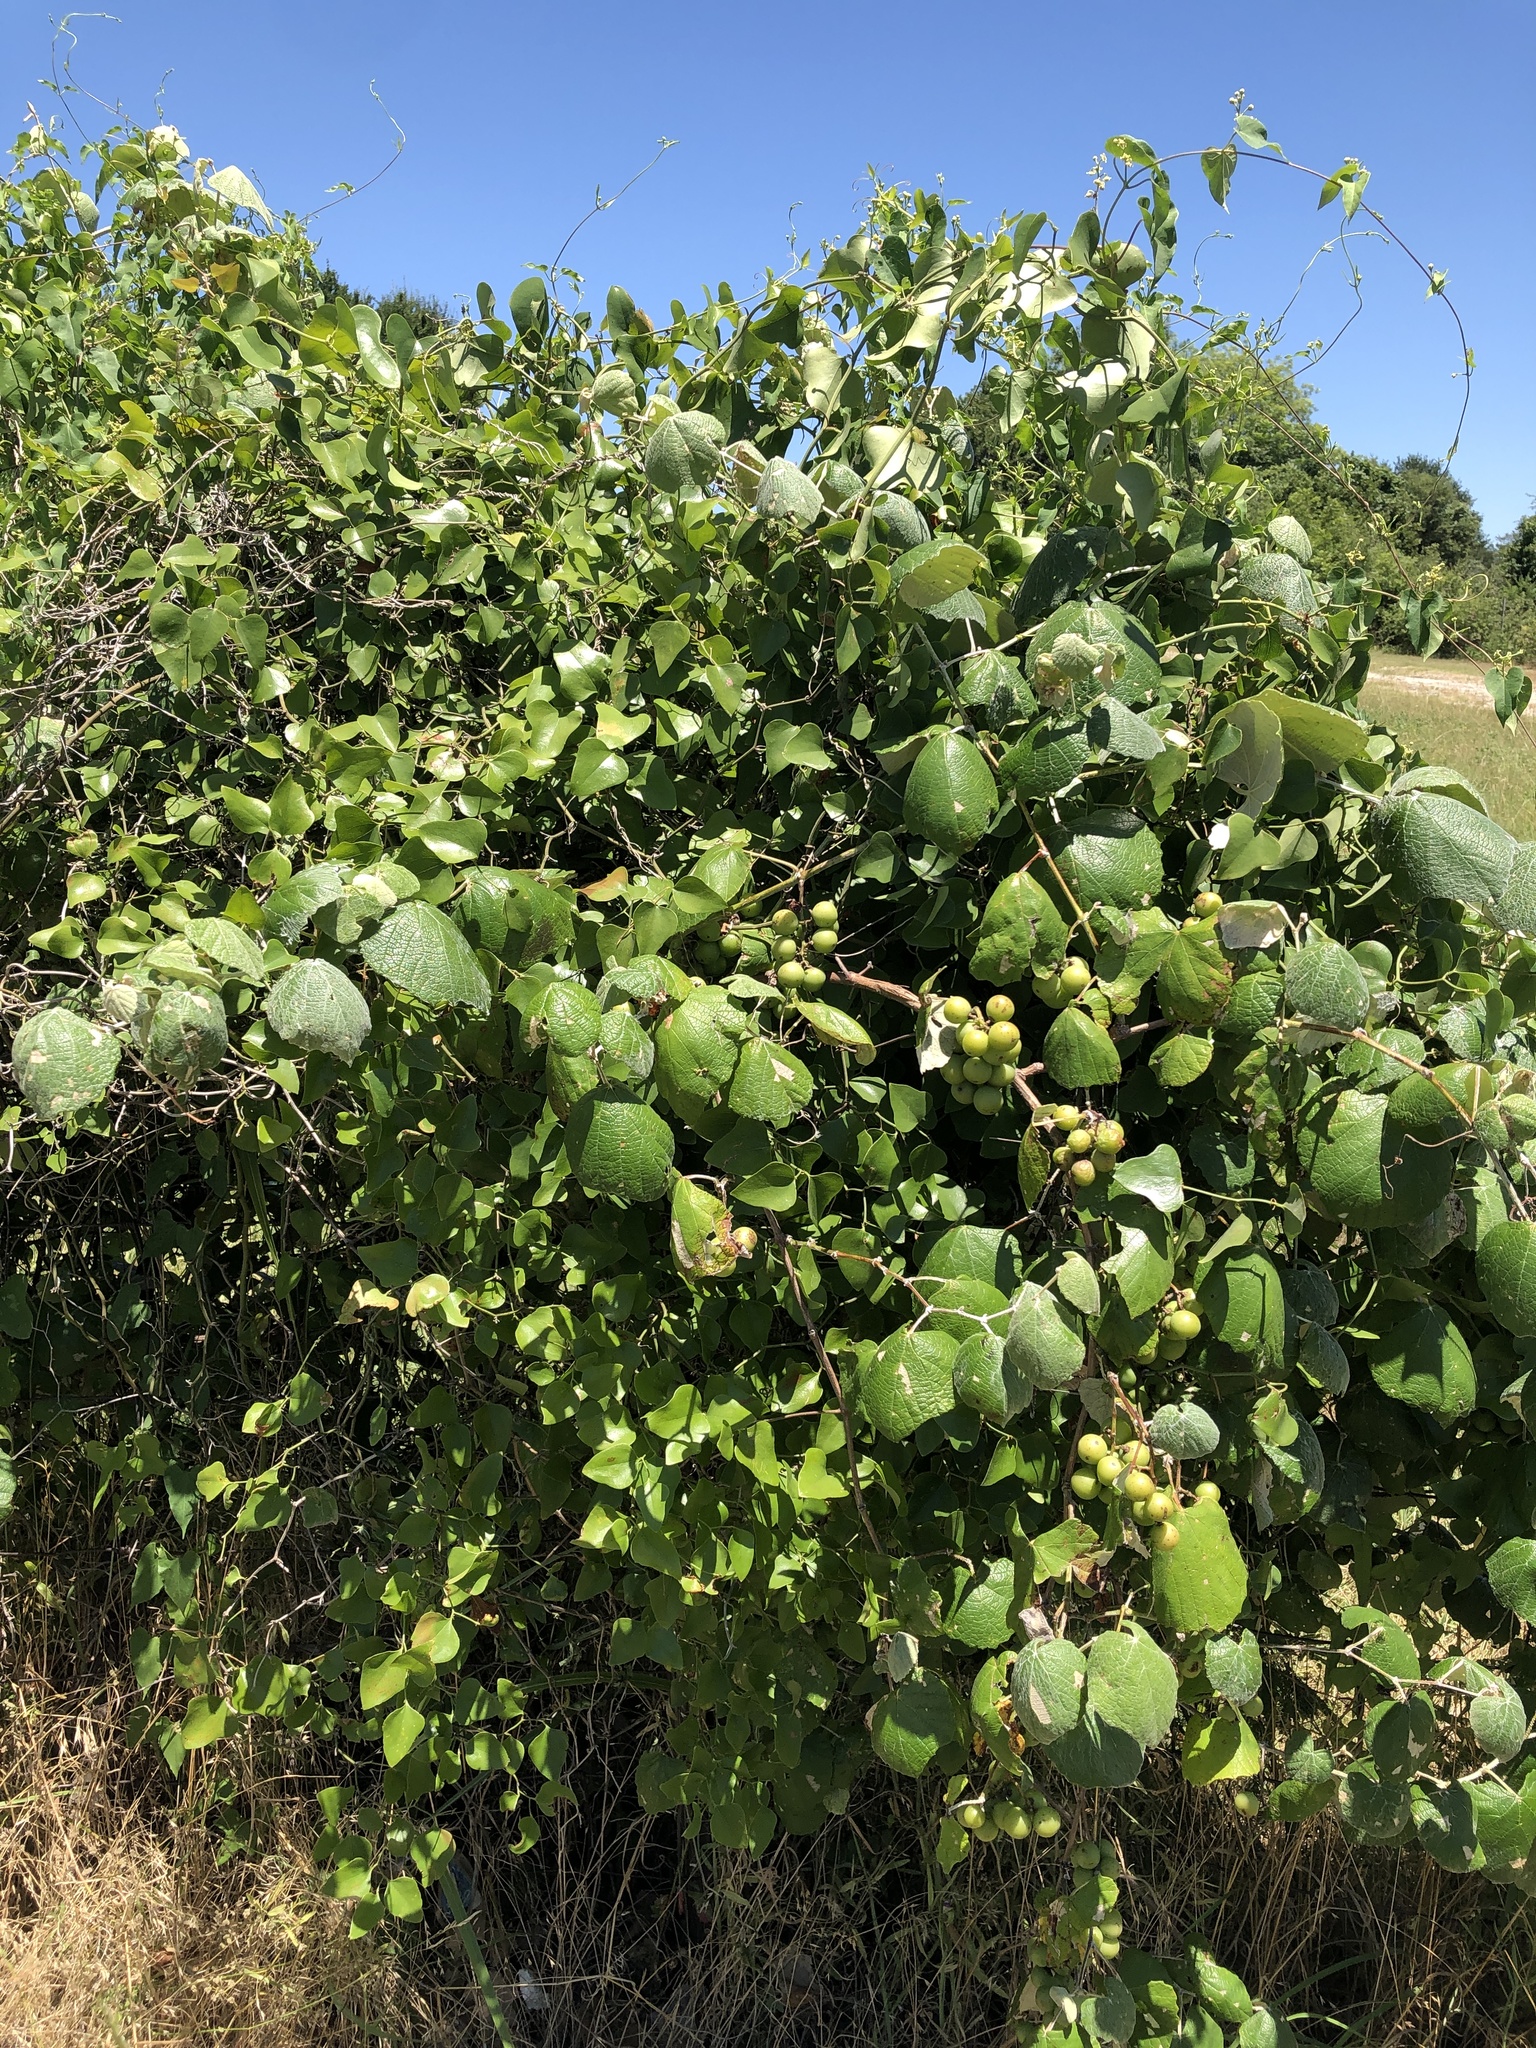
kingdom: Plantae
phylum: Tracheophyta
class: Magnoliopsida
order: Vitales
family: Vitaceae
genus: Vitis
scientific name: Vitis mustangensis
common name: Mustang grape
